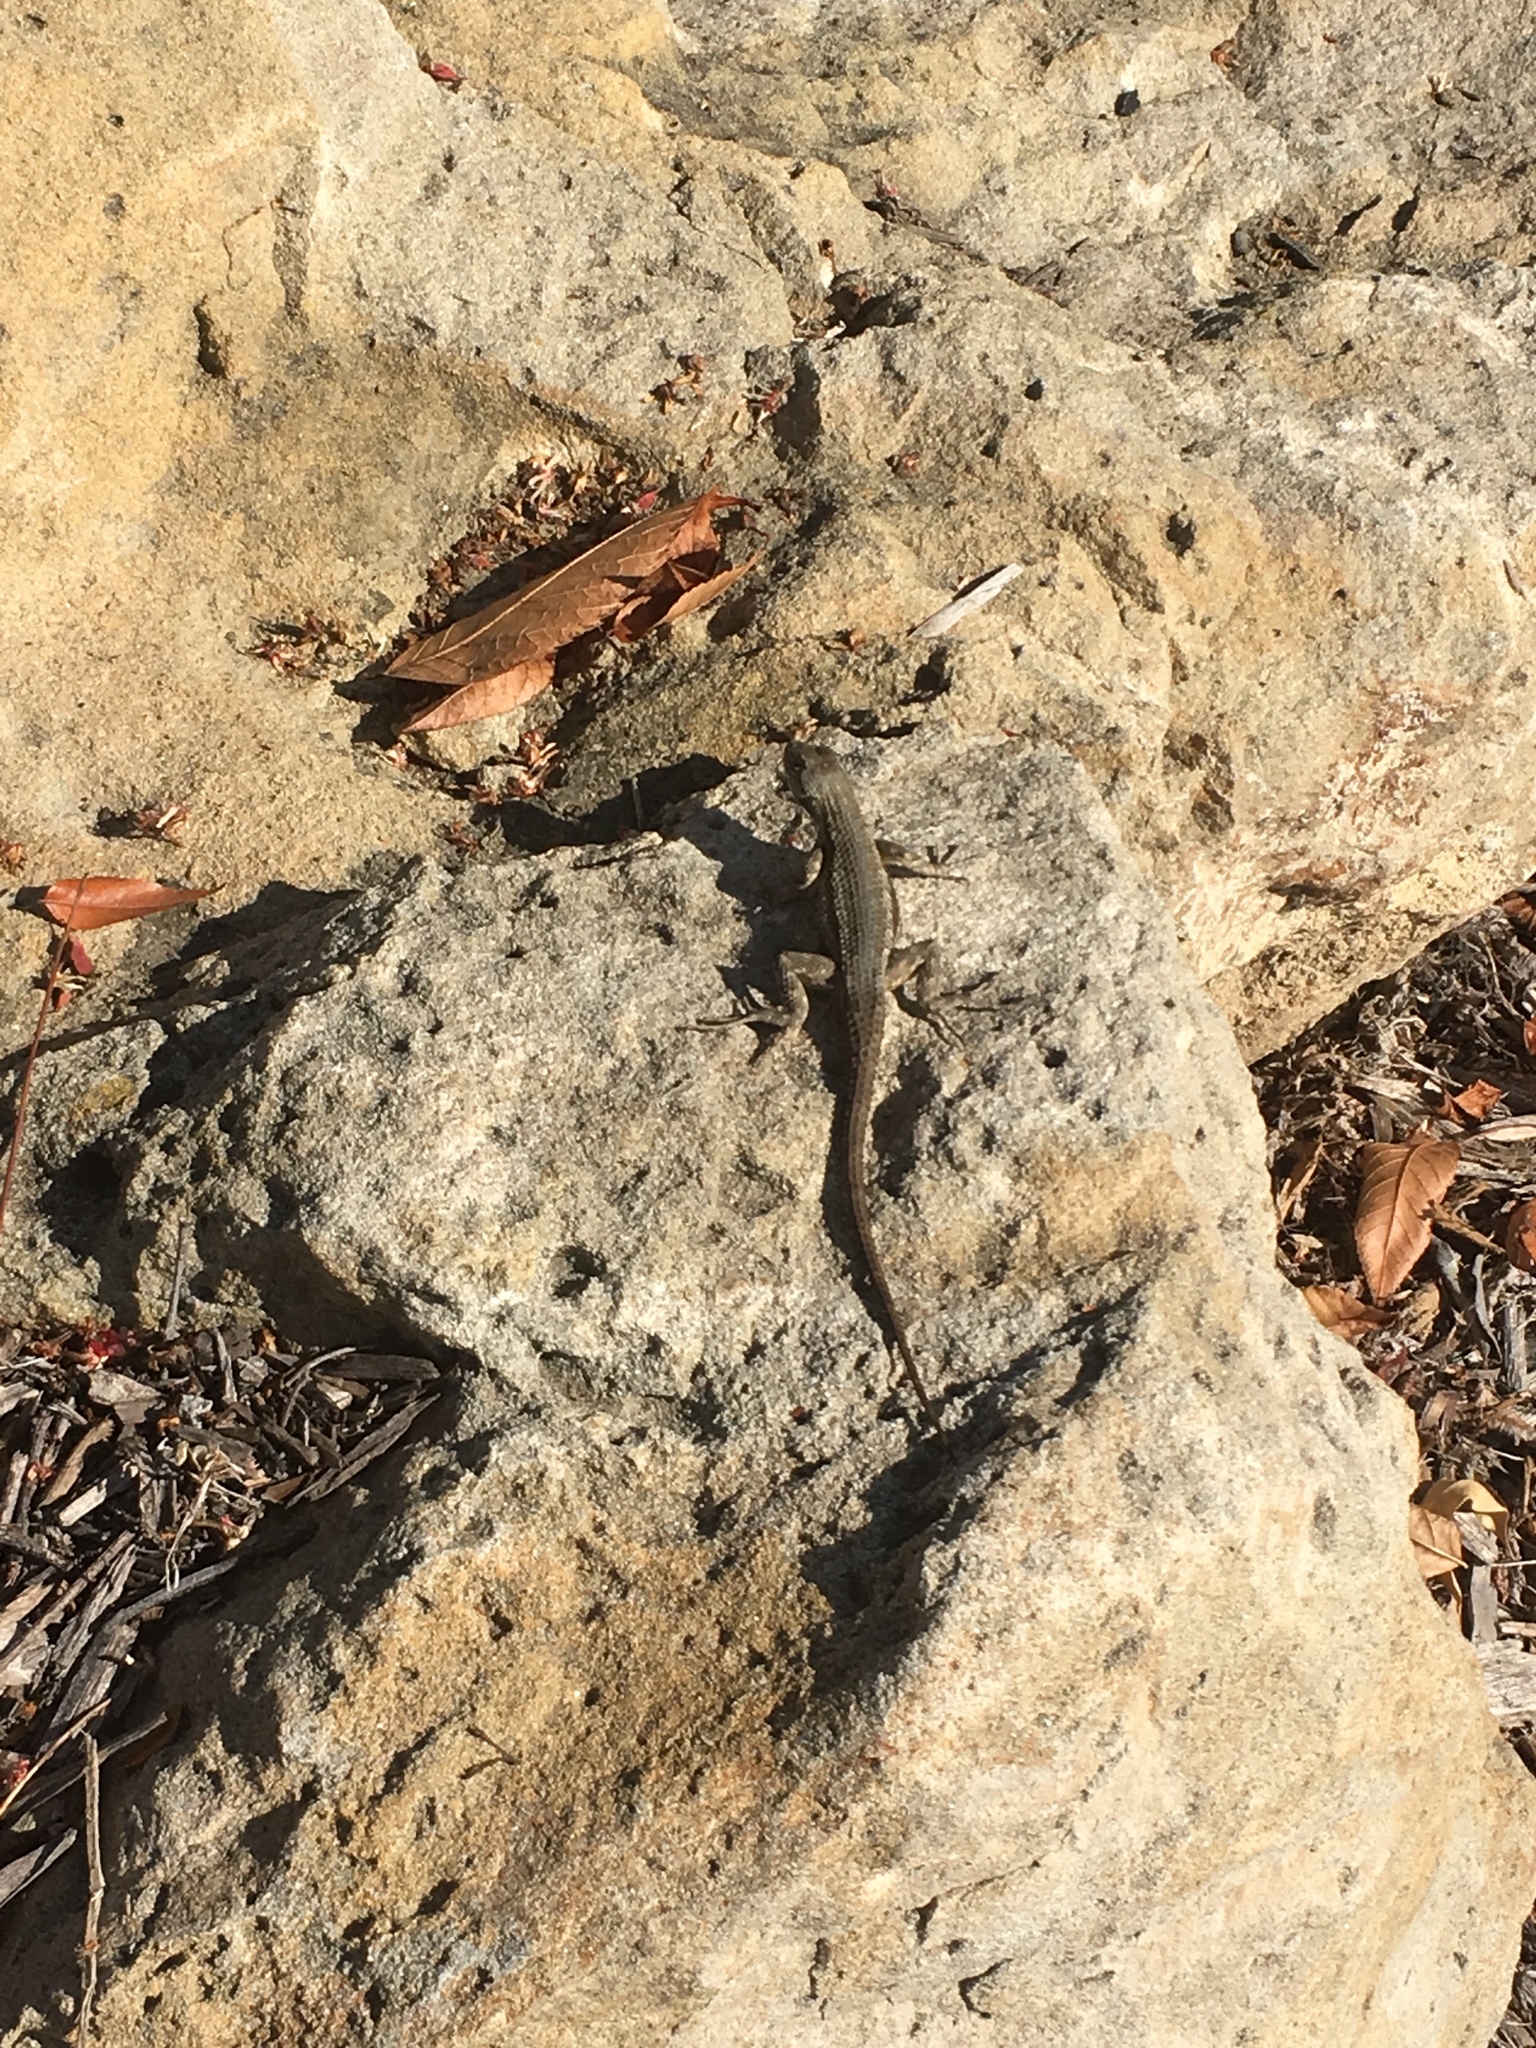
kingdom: Animalia
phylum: Chordata
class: Squamata
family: Phrynosomatidae
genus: Sceloporus
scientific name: Sceloporus occidentalis
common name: Western fence lizard
